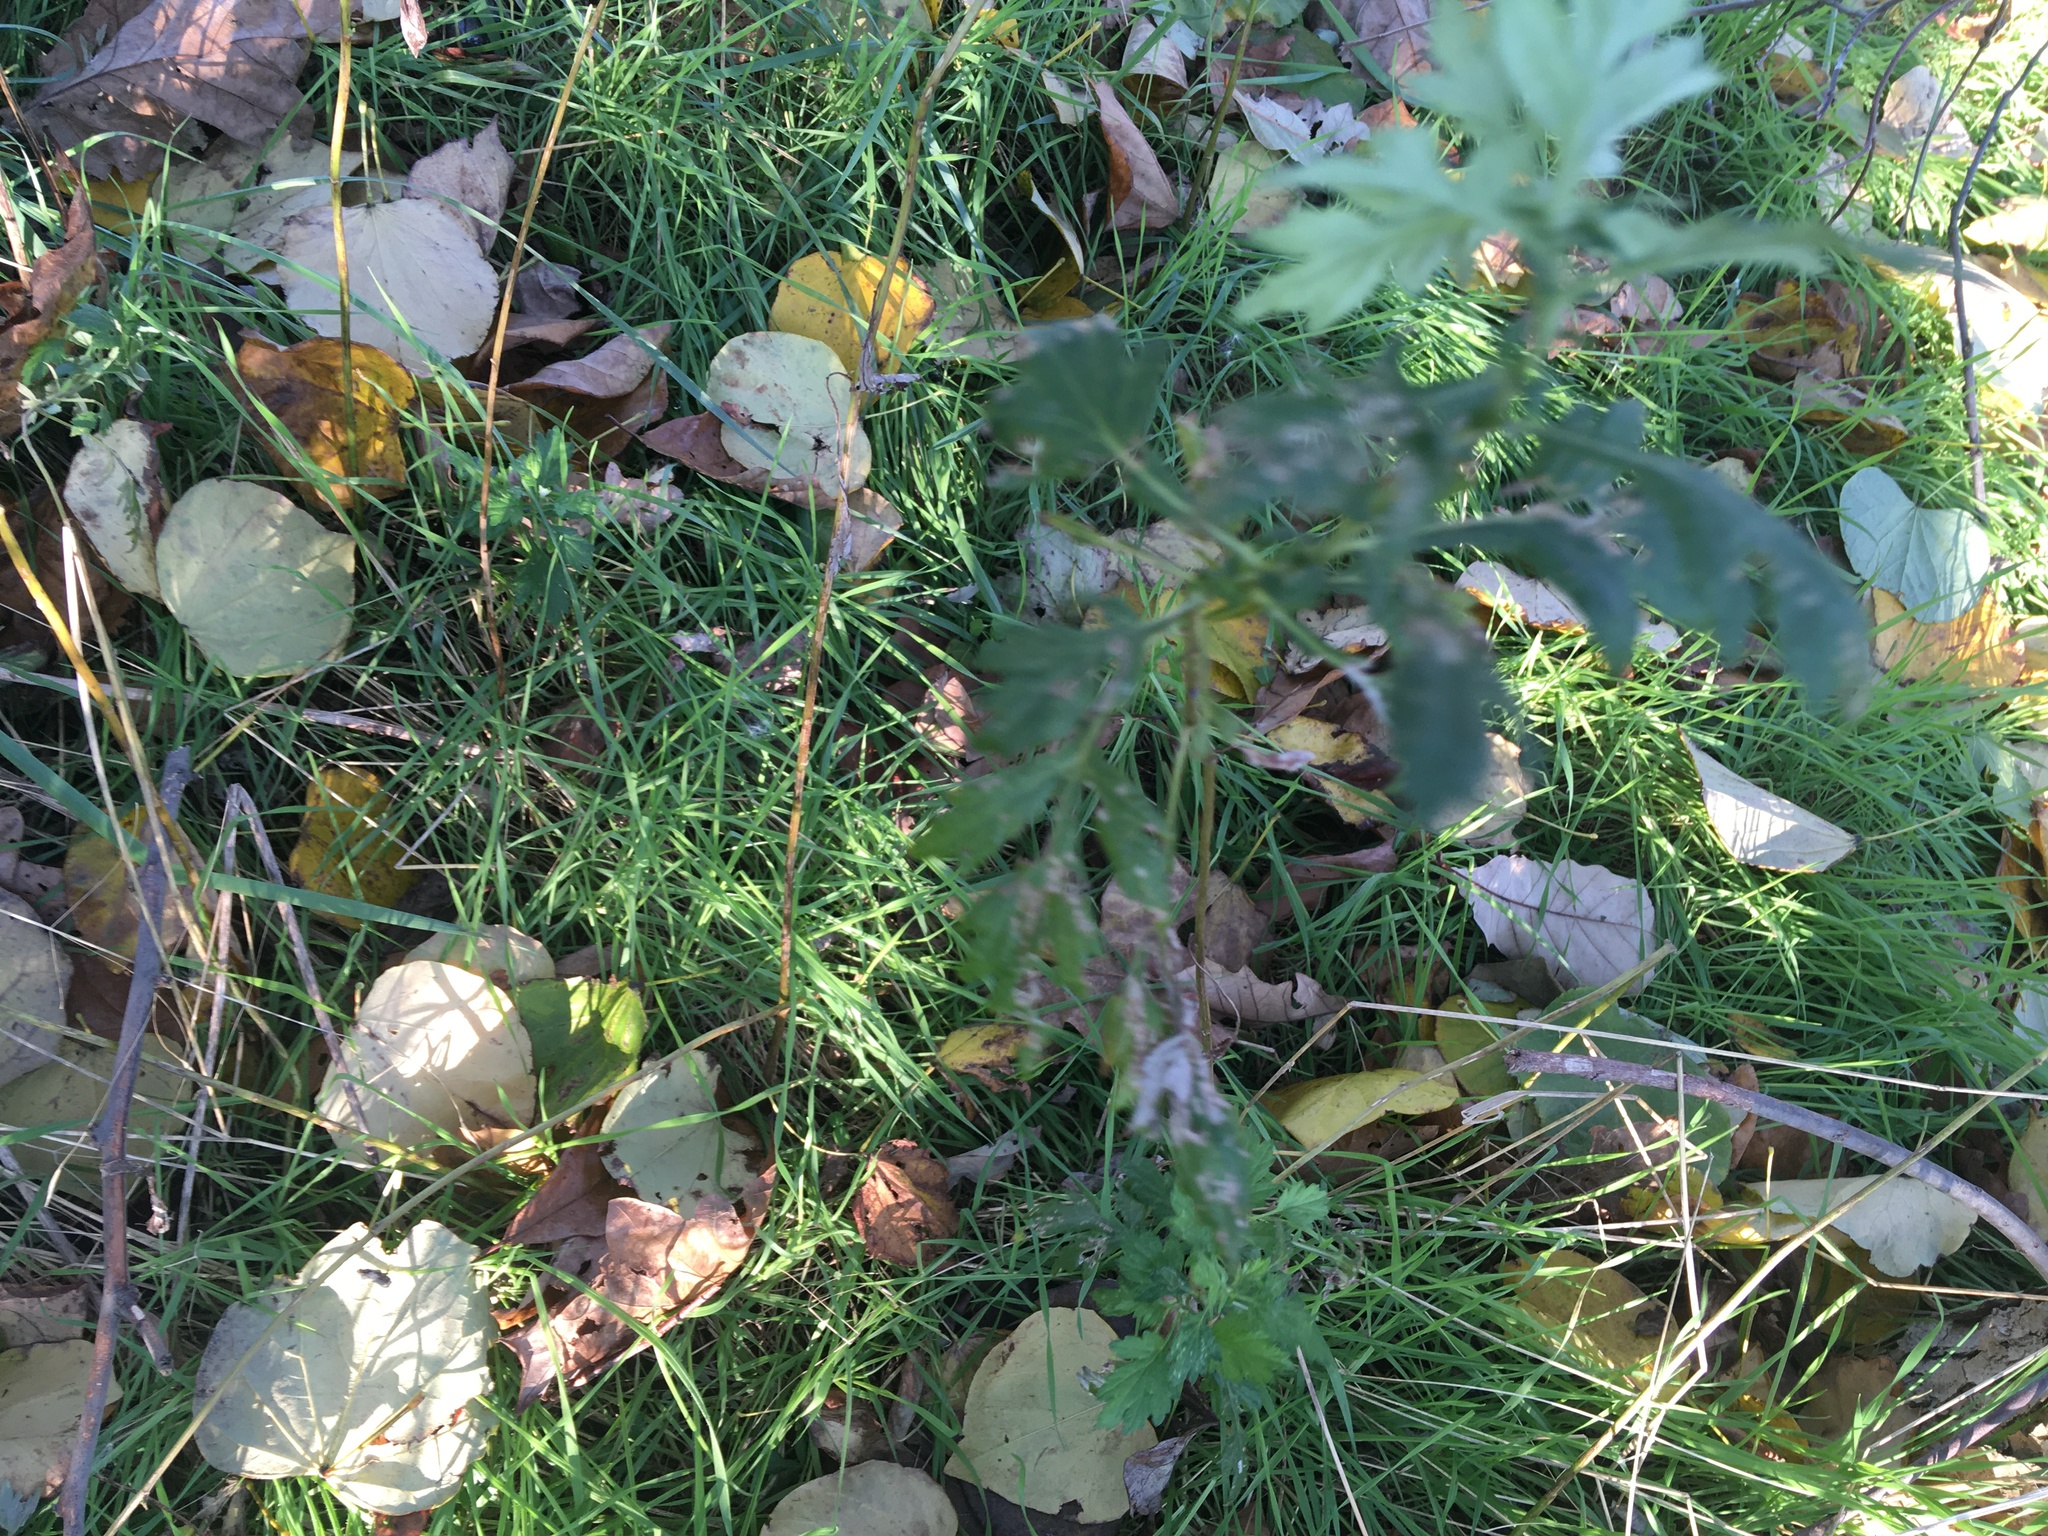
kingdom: Plantae
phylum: Tracheophyta
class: Magnoliopsida
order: Asterales
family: Asteraceae
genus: Artemisia
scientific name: Artemisia vulgaris
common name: Mugwort
